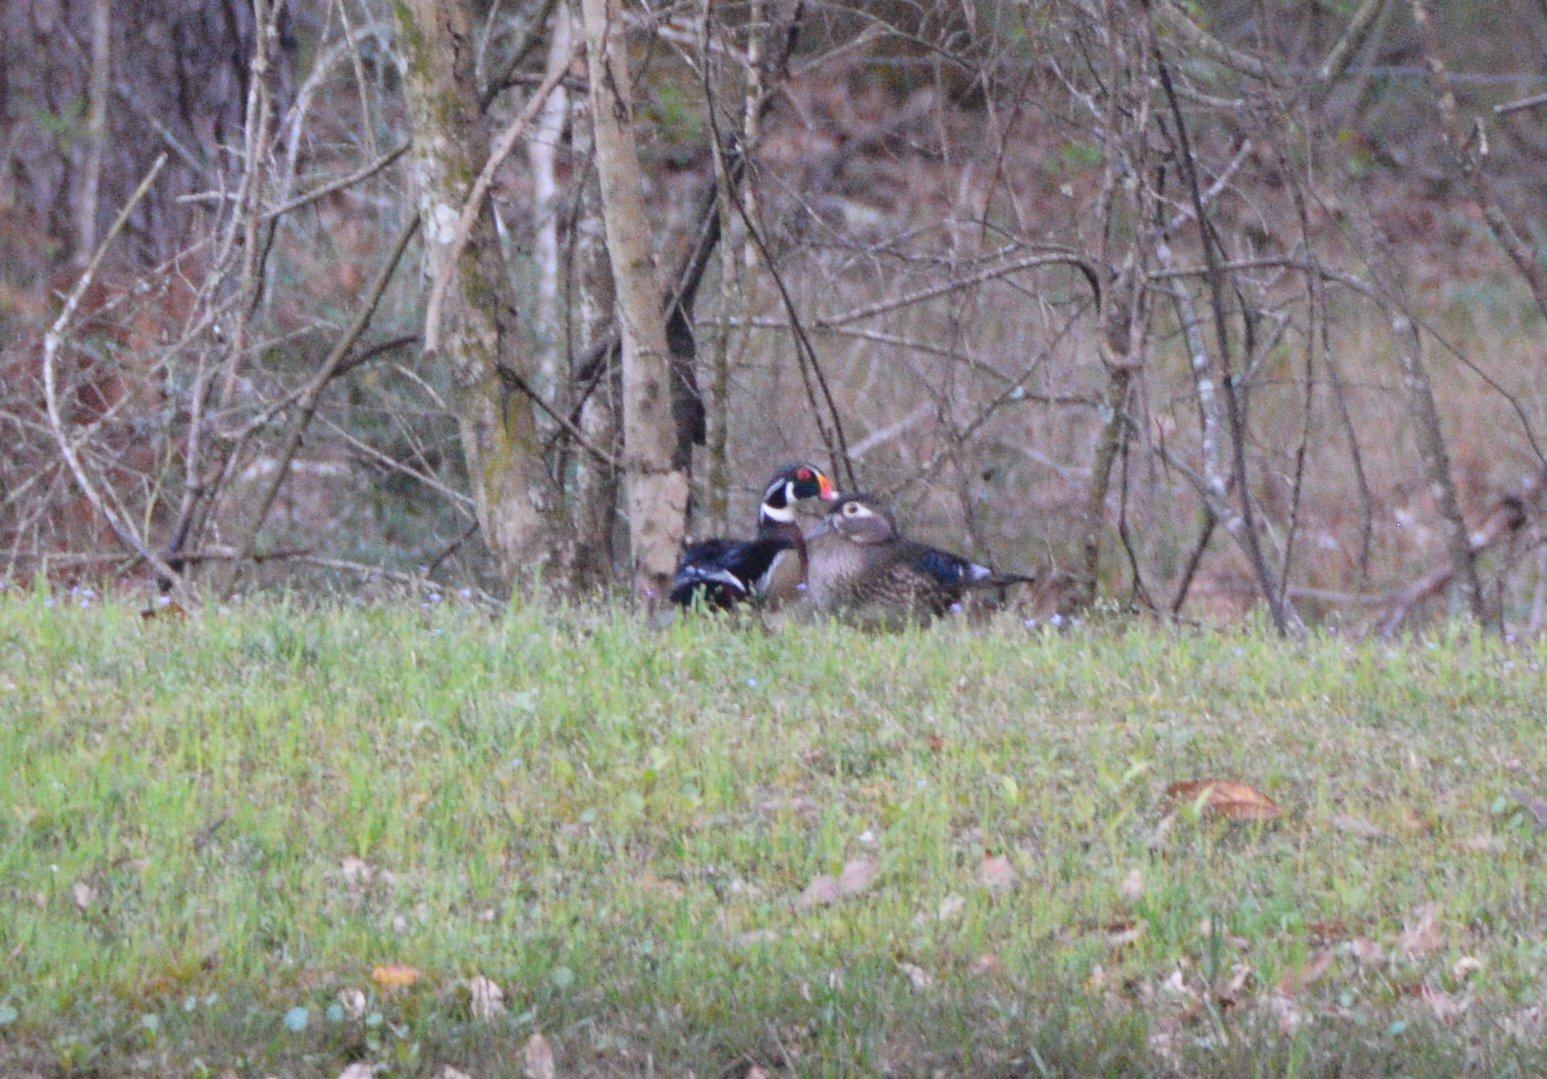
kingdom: Animalia
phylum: Chordata
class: Aves
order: Anseriformes
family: Anatidae
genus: Aix
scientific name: Aix sponsa
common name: Wood duck
